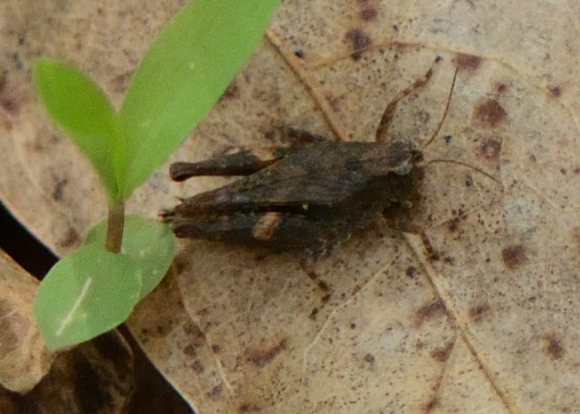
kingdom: Animalia
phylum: Arthropoda
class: Insecta
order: Orthoptera
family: Tetrigidae
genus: Tettigidea
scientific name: Tettigidea laterale
